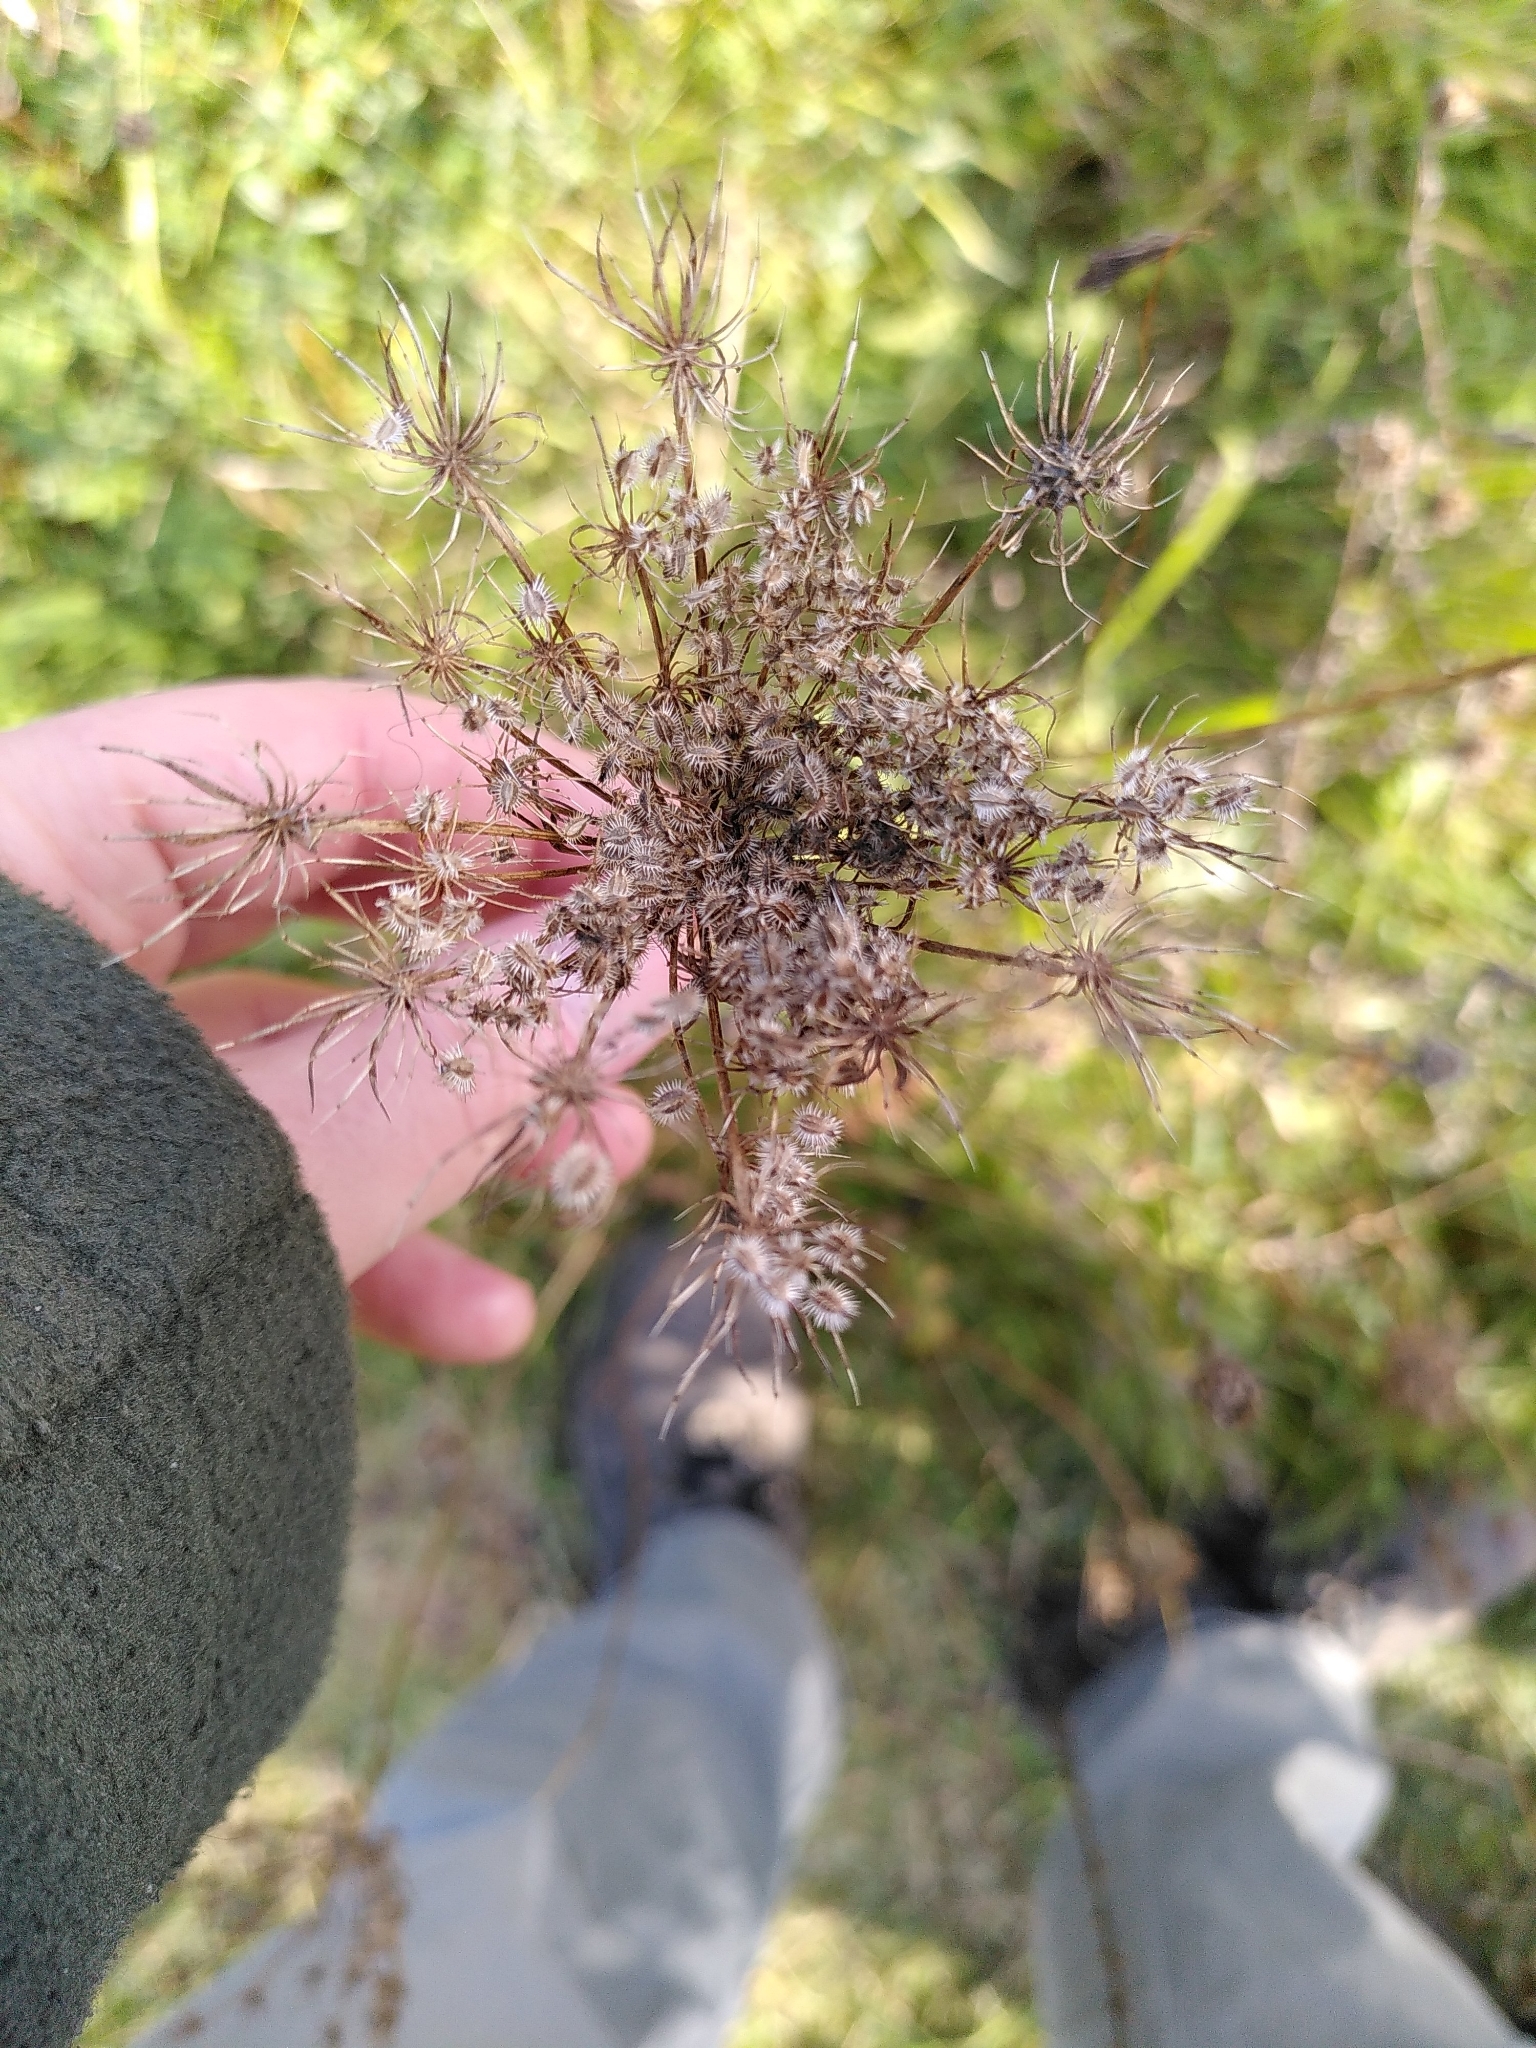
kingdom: Plantae
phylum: Tracheophyta
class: Magnoliopsida
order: Apiales
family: Apiaceae
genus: Daucus
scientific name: Daucus carota
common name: Wild carrot
